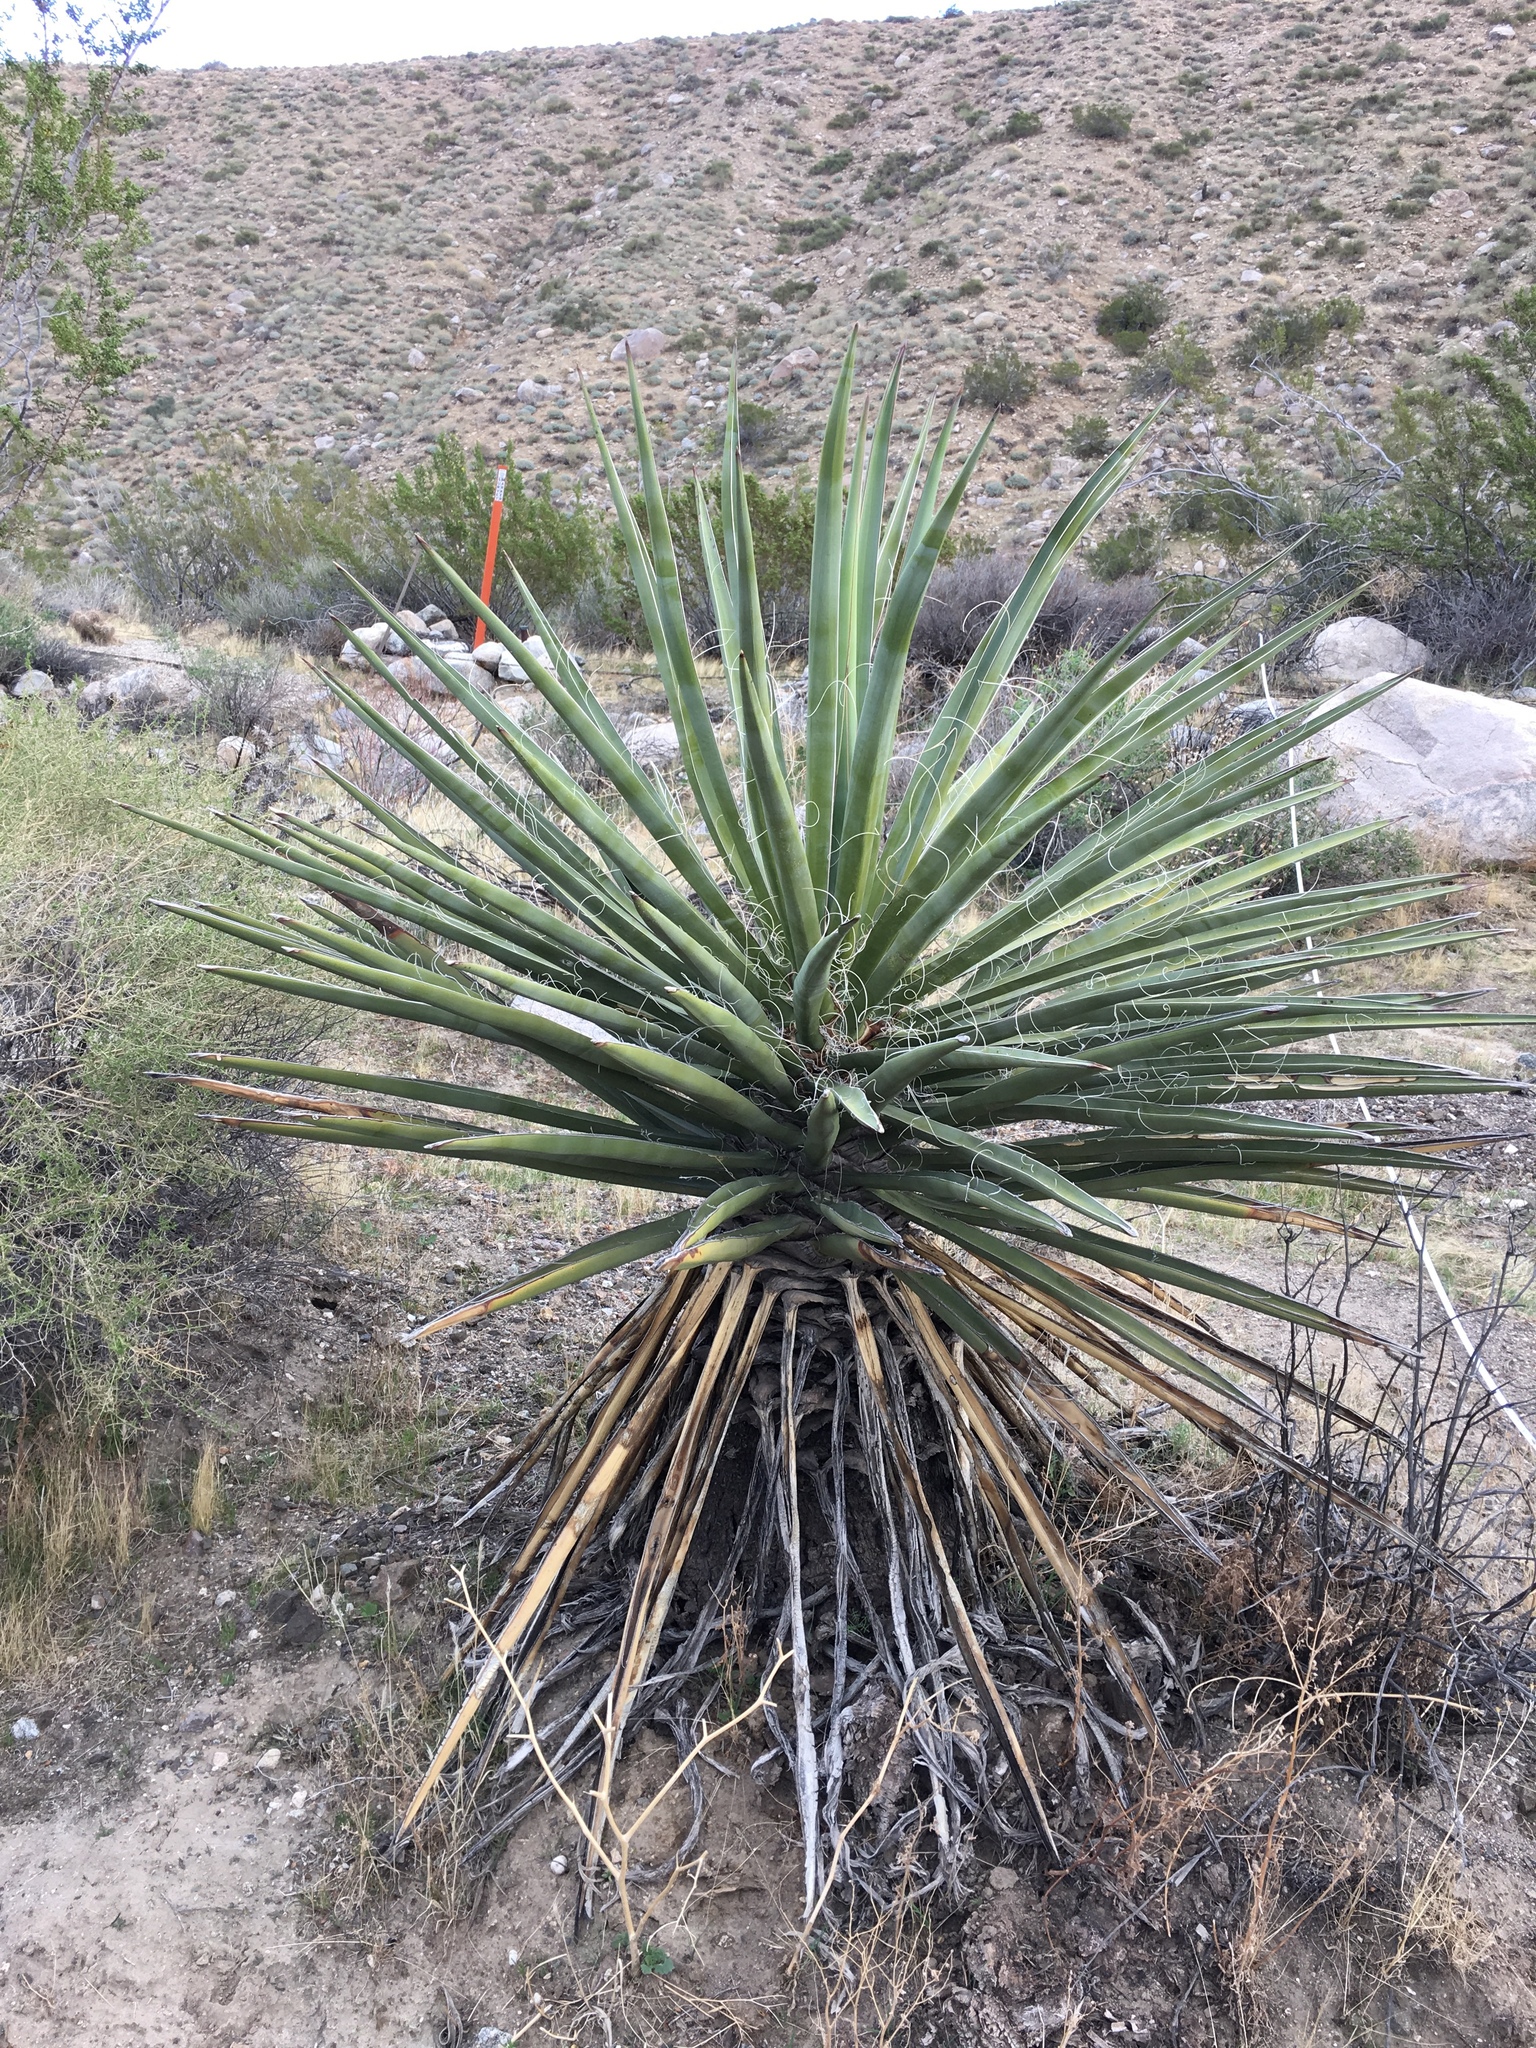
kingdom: Plantae
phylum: Tracheophyta
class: Liliopsida
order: Asparagales
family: Asparagaceae
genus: Yucca
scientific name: Yucca schidigera
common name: Mojave yucca
